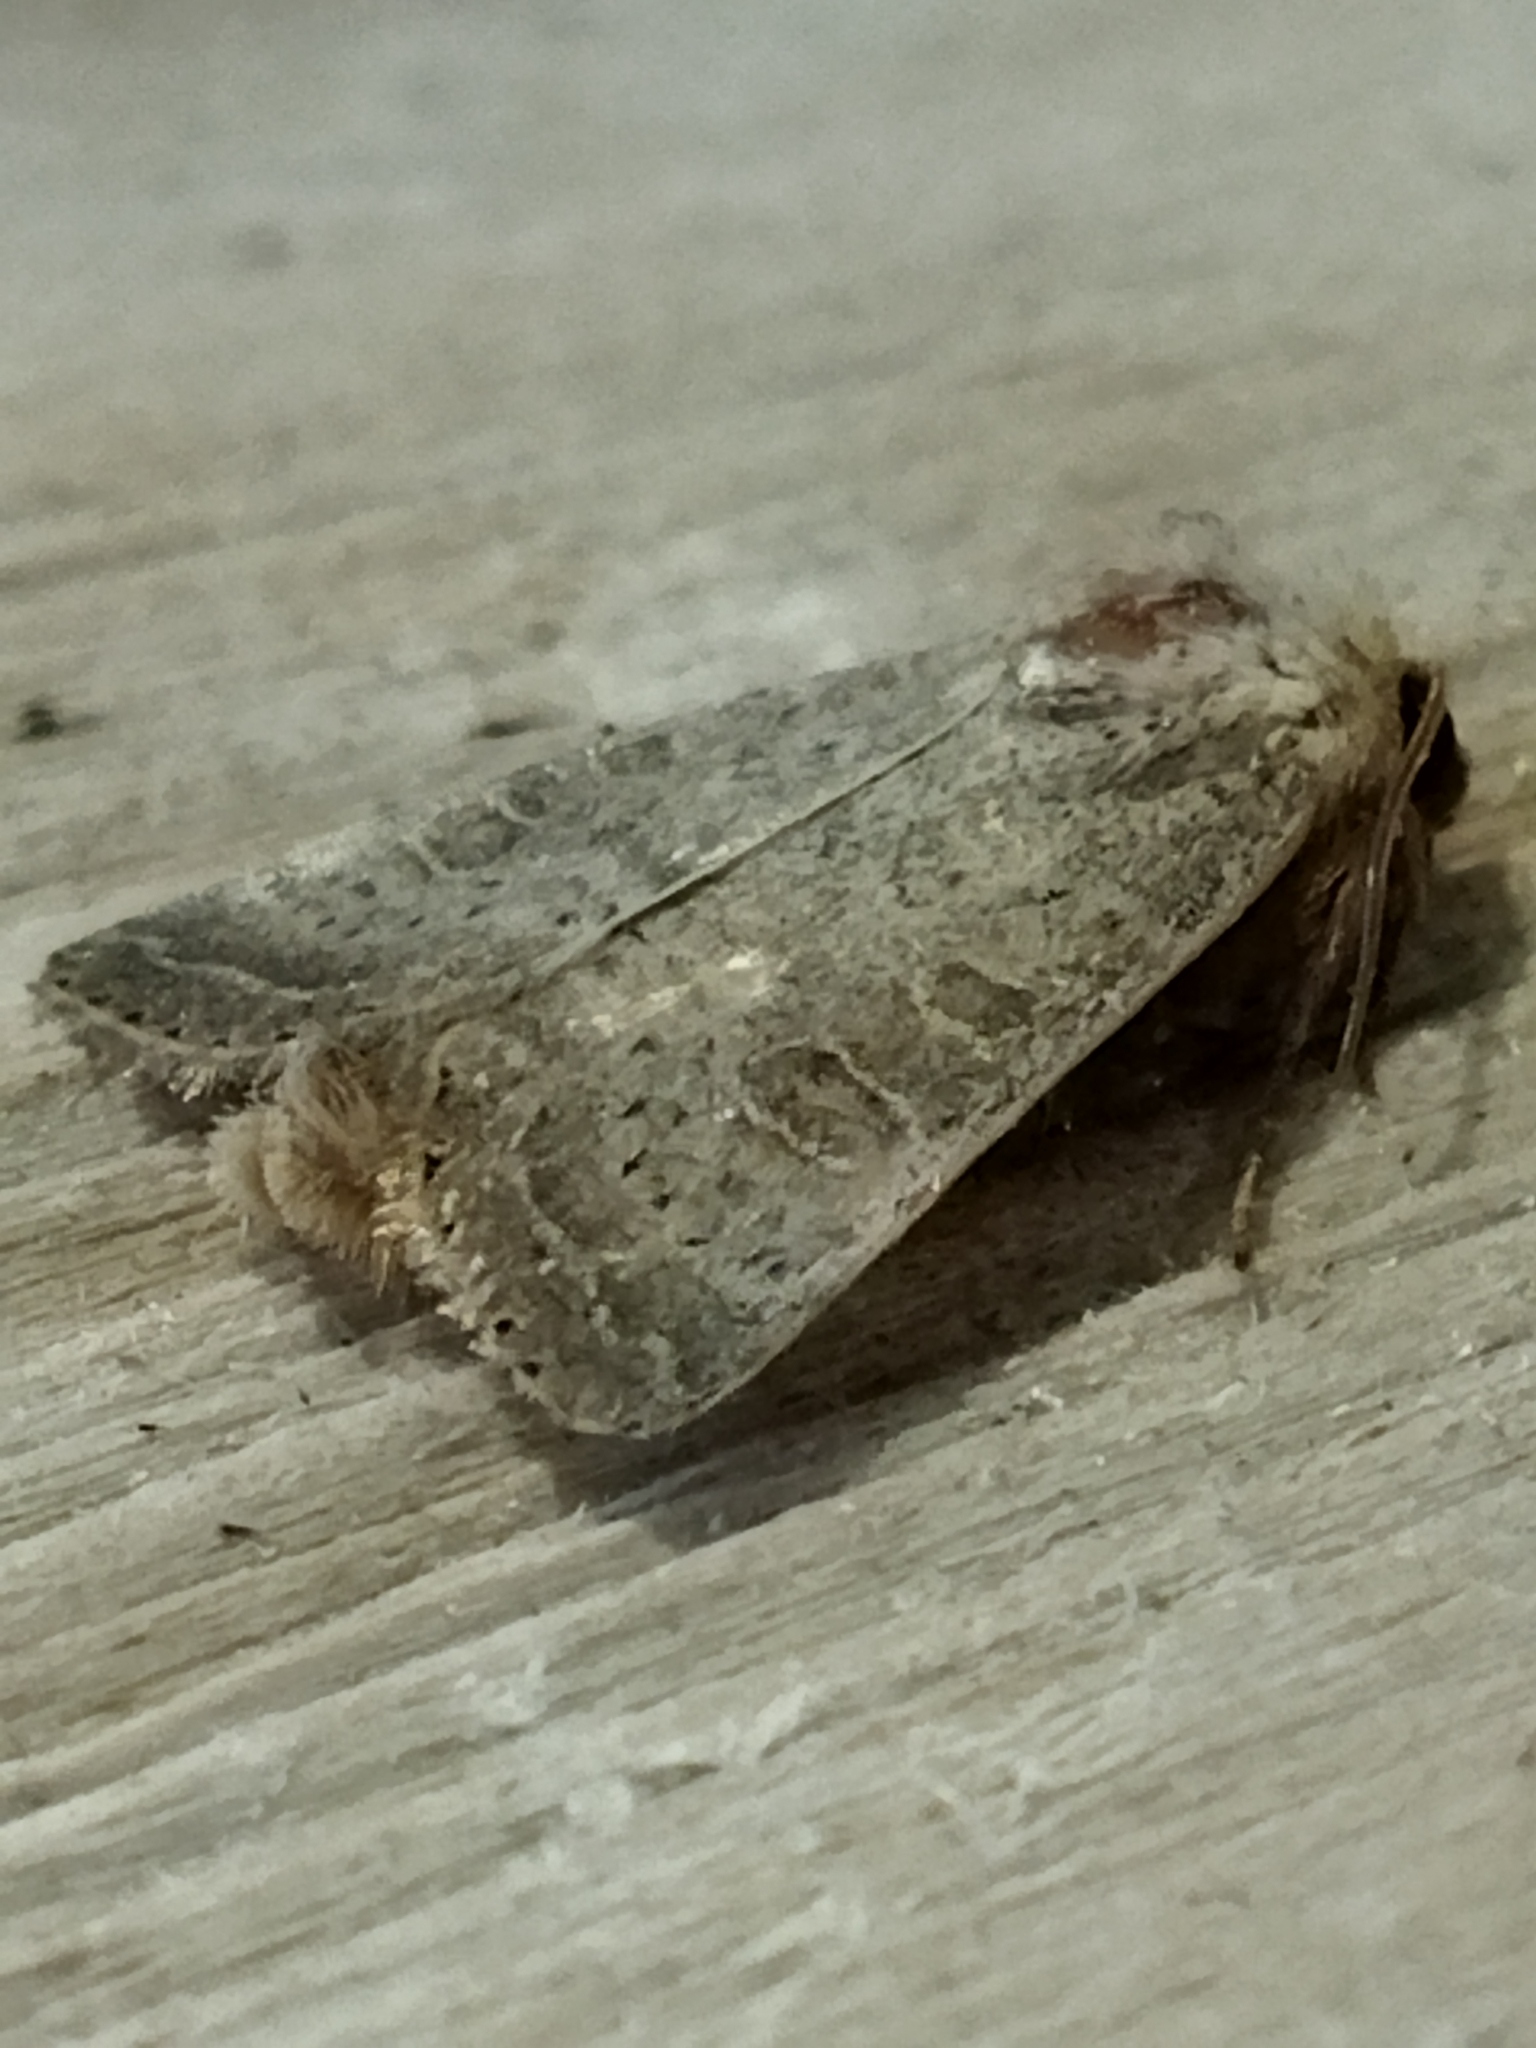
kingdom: Animalia
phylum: Arthropoda
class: Insecta
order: Lepidoptera
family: Noctuidae
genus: Hoplodrina
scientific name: Hoplodrina ambigua
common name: Vine's rustic
